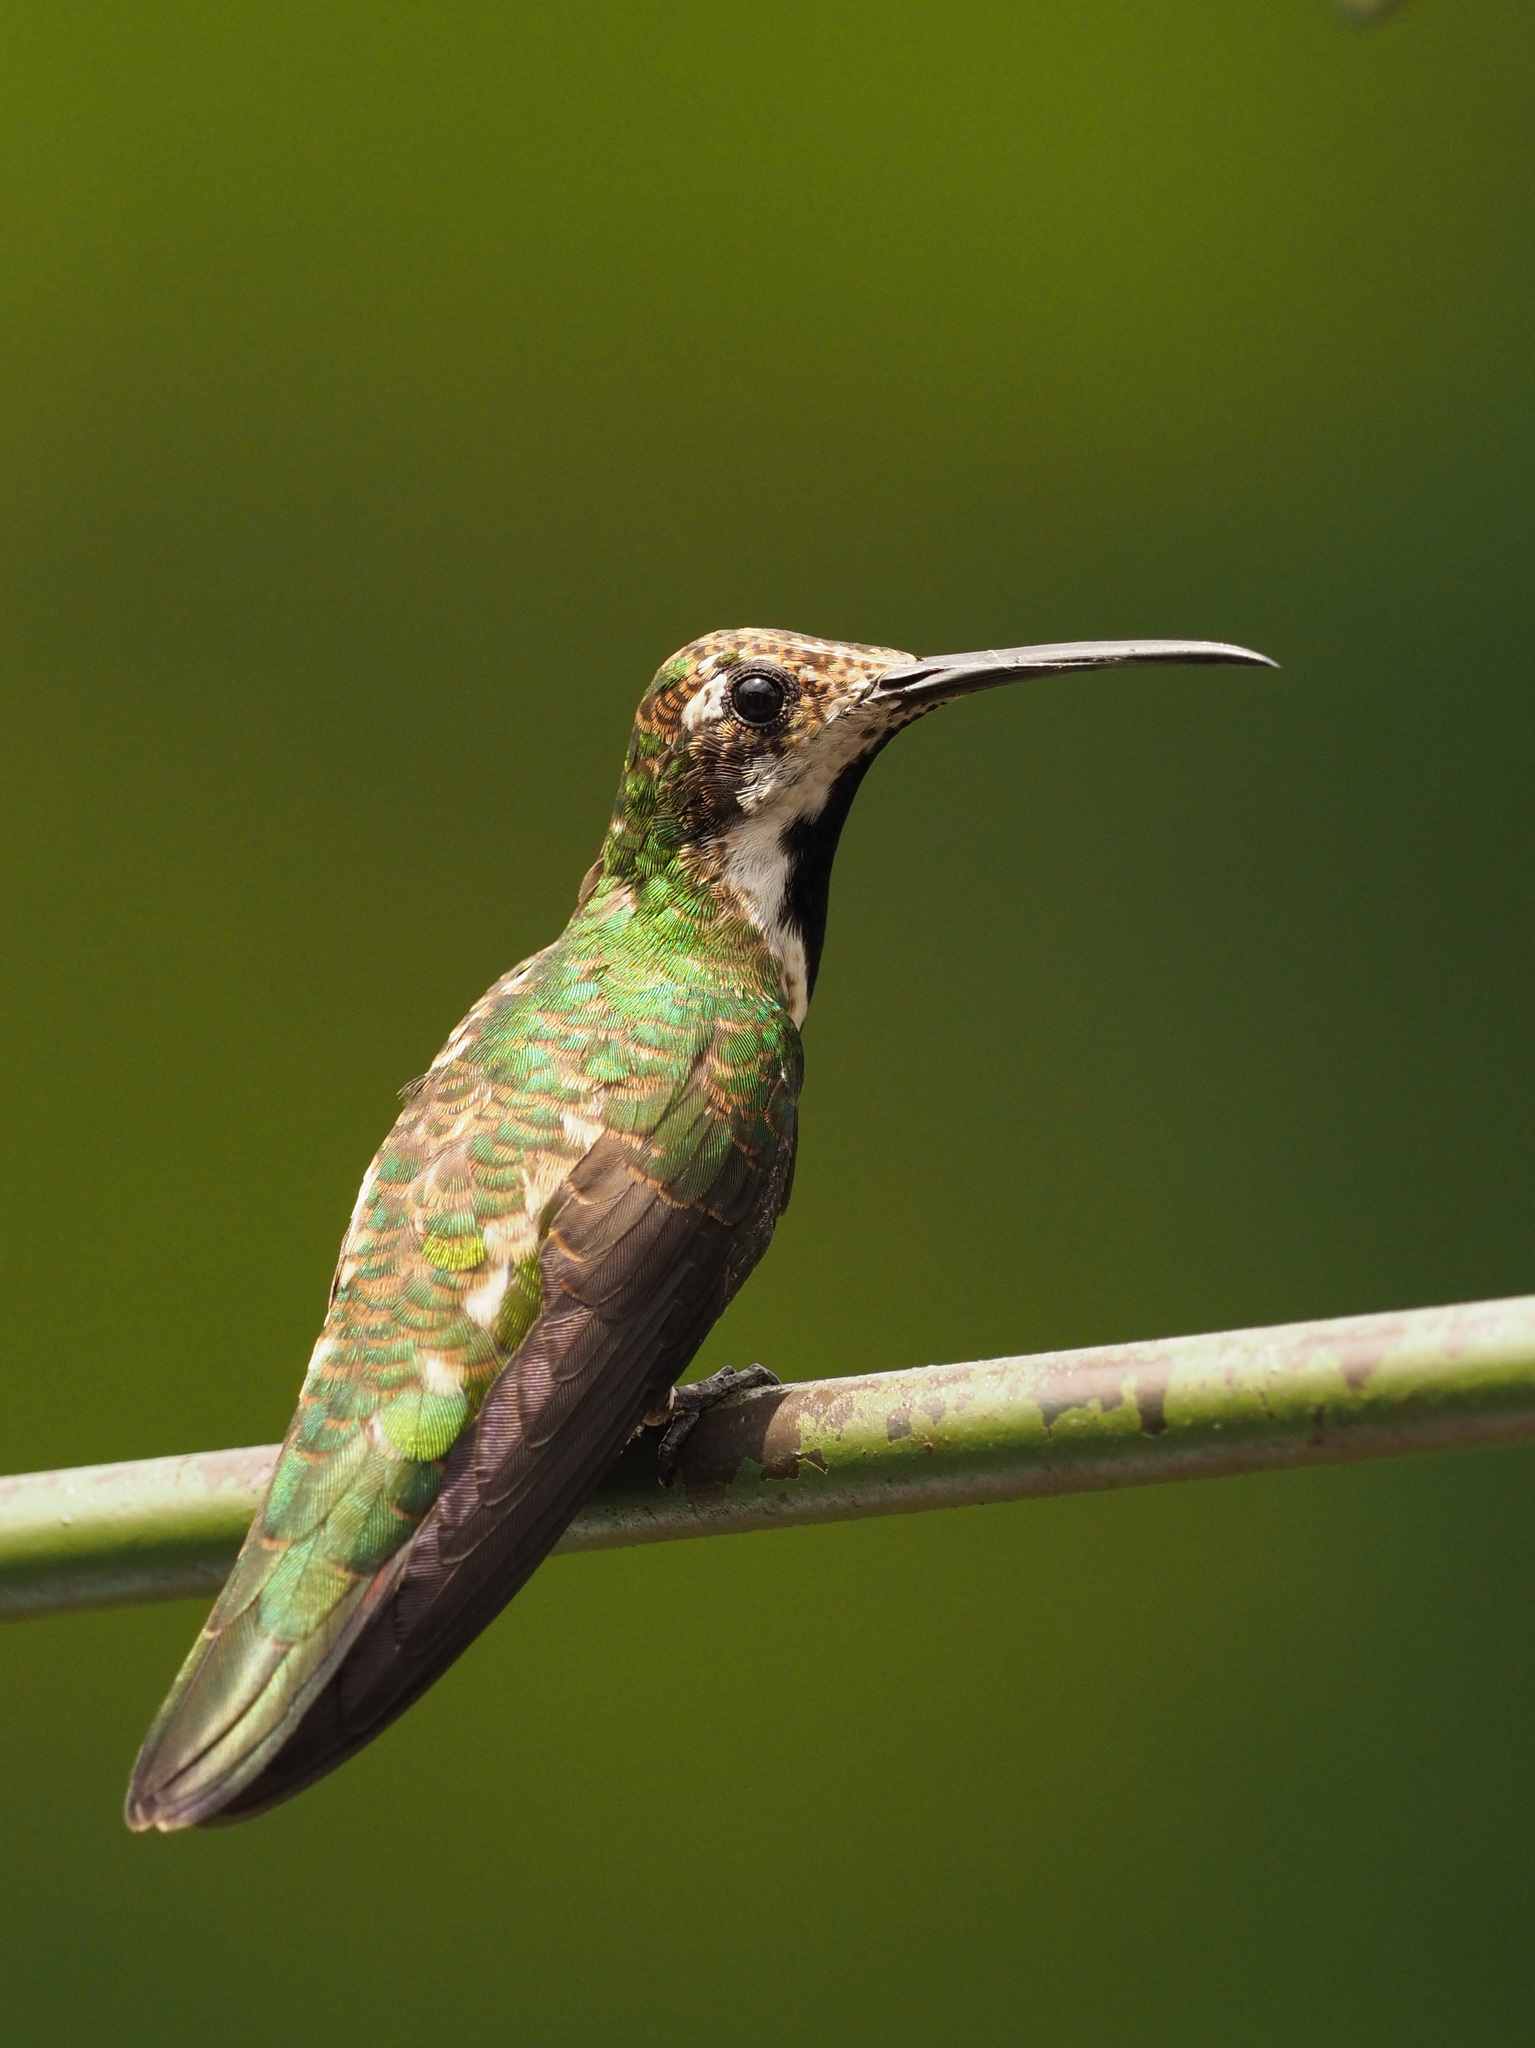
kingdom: Animalia
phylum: Chordata
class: Aves
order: Apodiformes
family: Trochilidae
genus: Anthracothorax
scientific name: Anthracothorax nigricollis
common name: Black-throated mango
